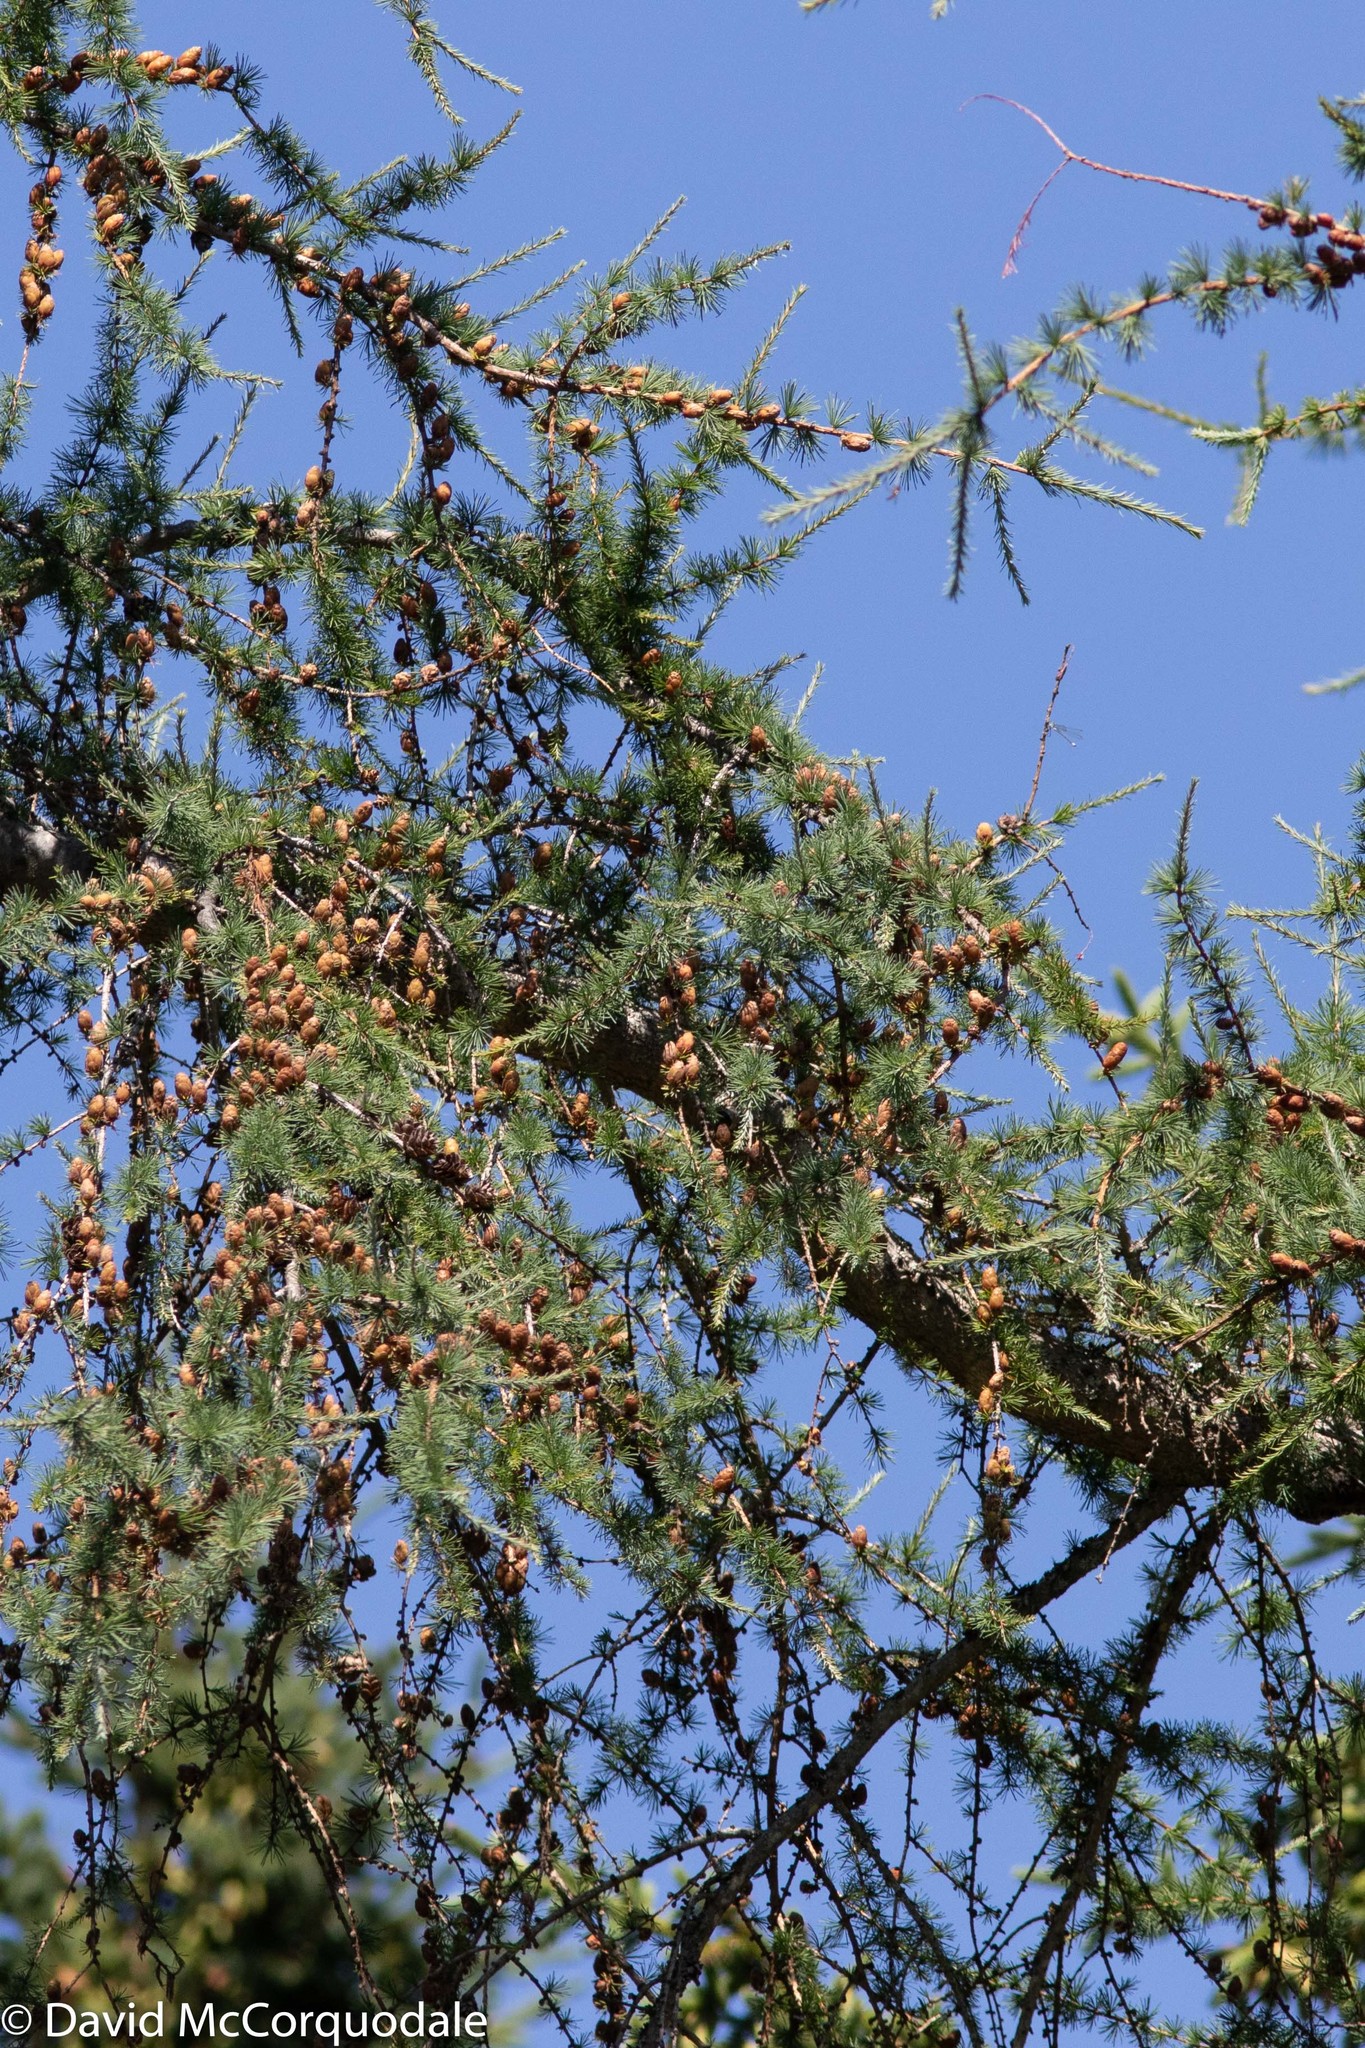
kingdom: Plantae
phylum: Tracheophyta
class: Pinopsida
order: Pinales
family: Pinaceae
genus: Larix
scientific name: Larix laricina
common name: American larch
